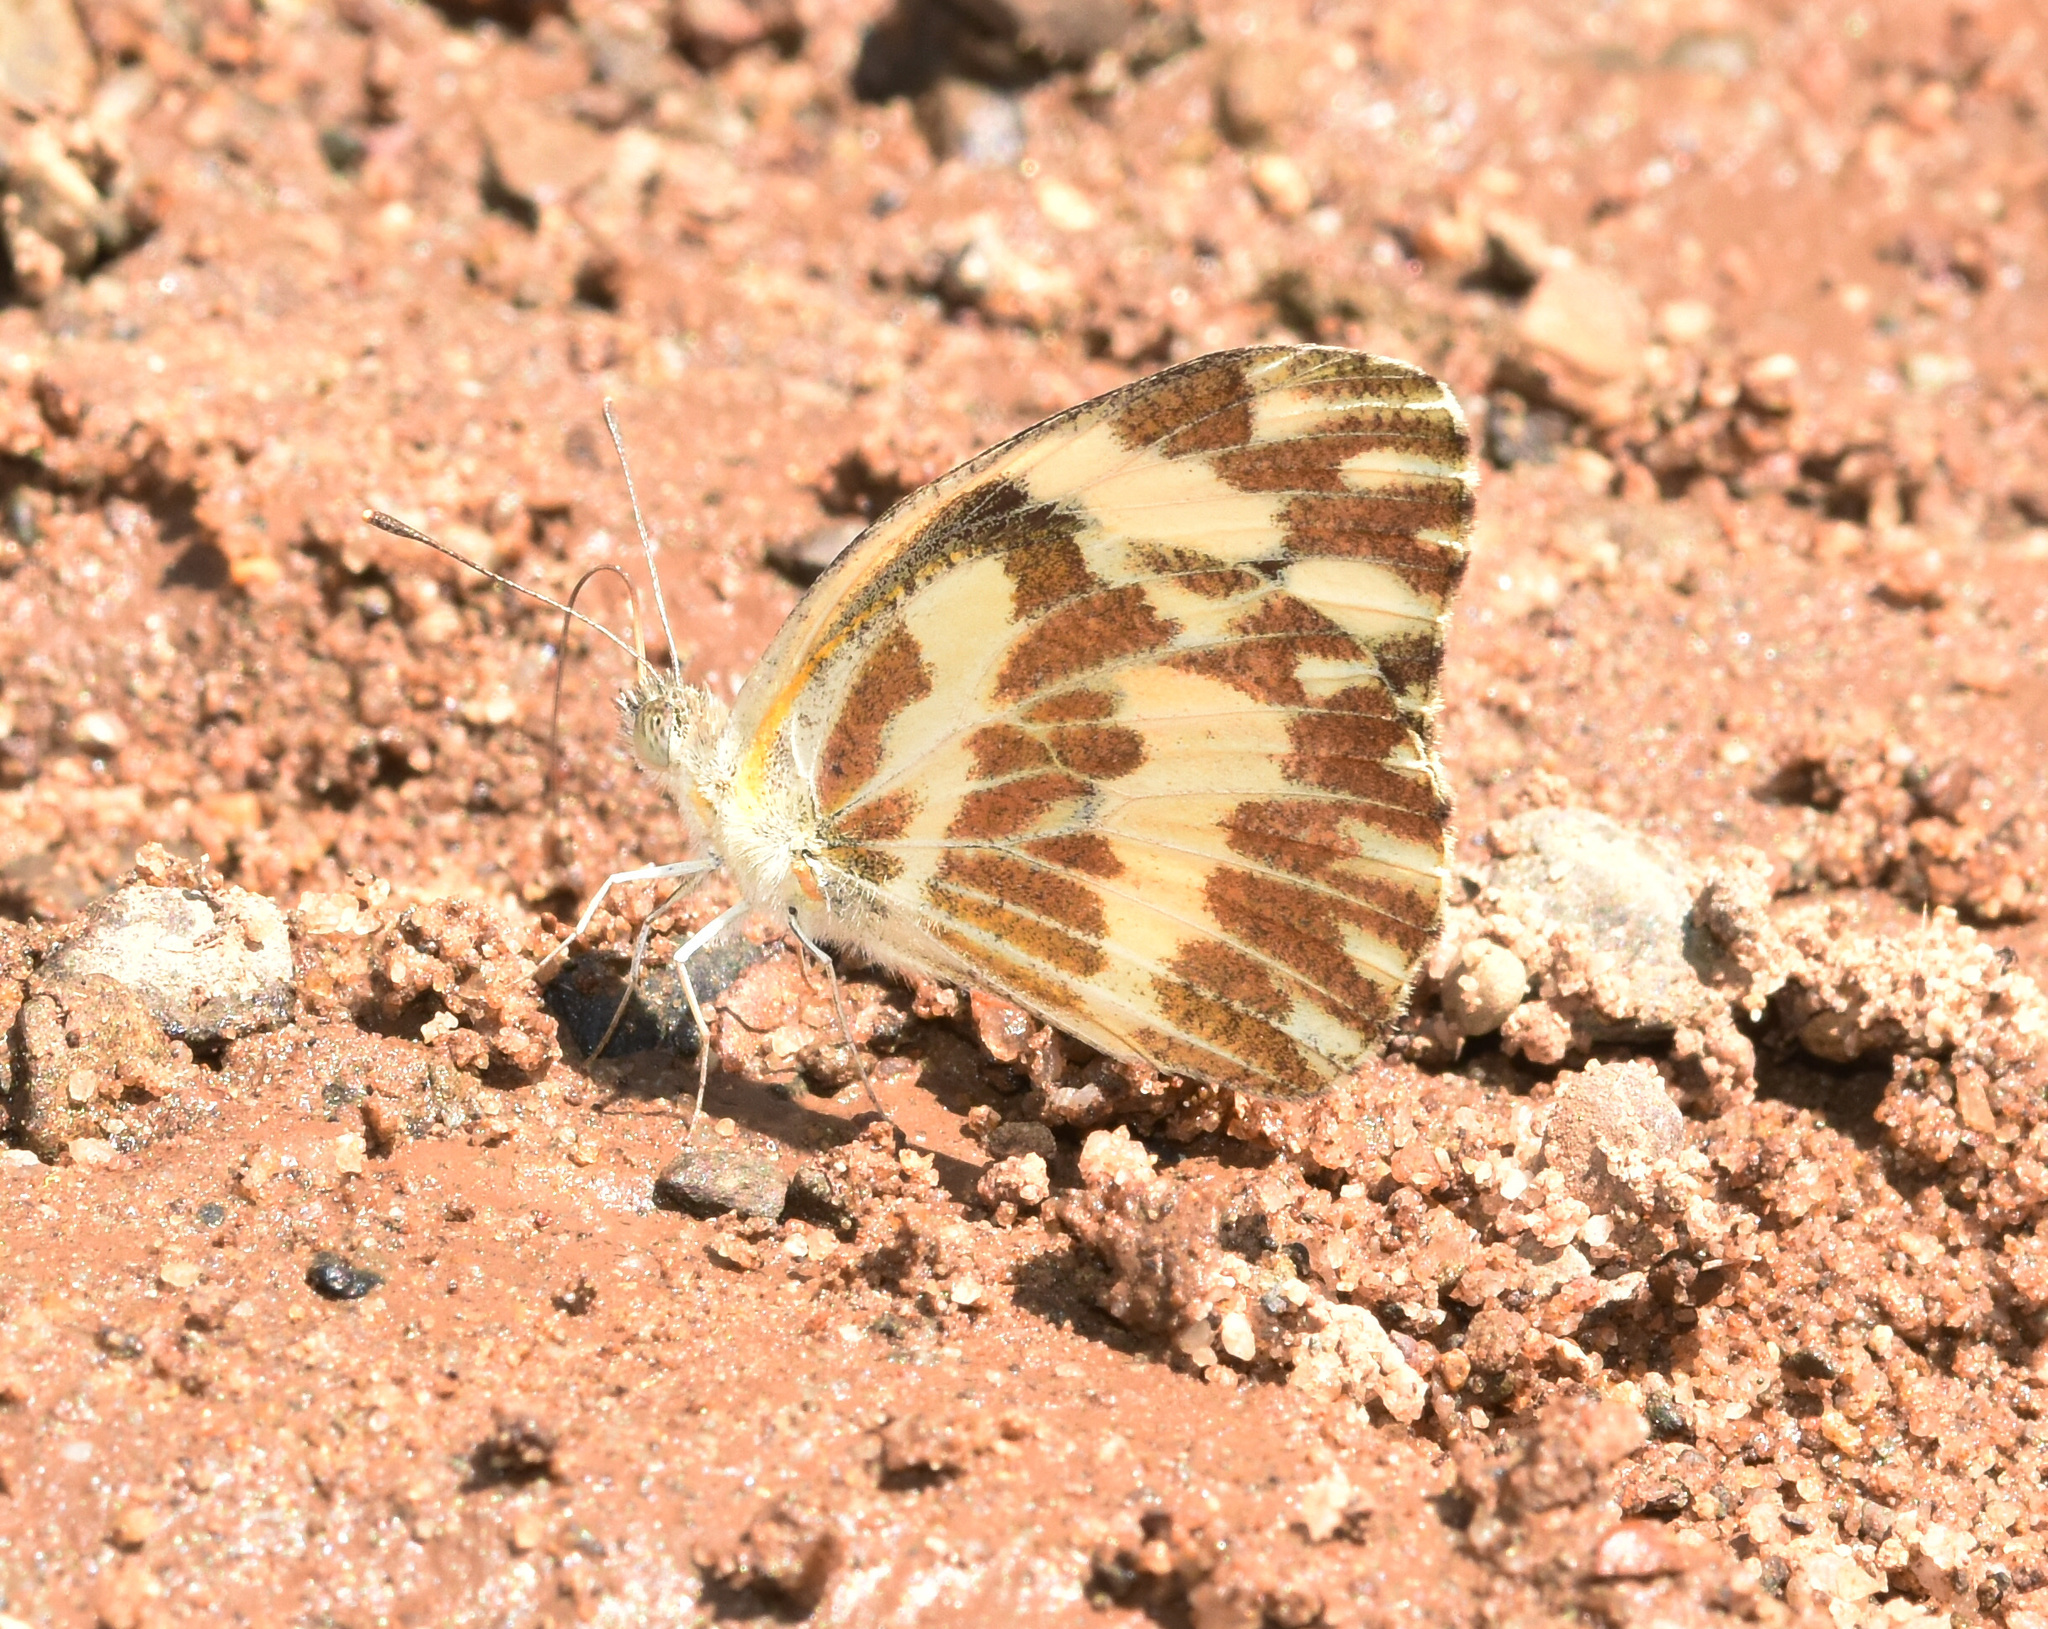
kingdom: Animalia
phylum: Arthropoda
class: Insecta
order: Lepidoptera
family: Pieridae
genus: Pinacopteryx
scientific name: Pinacopteryx eriphia
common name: Zebra white
